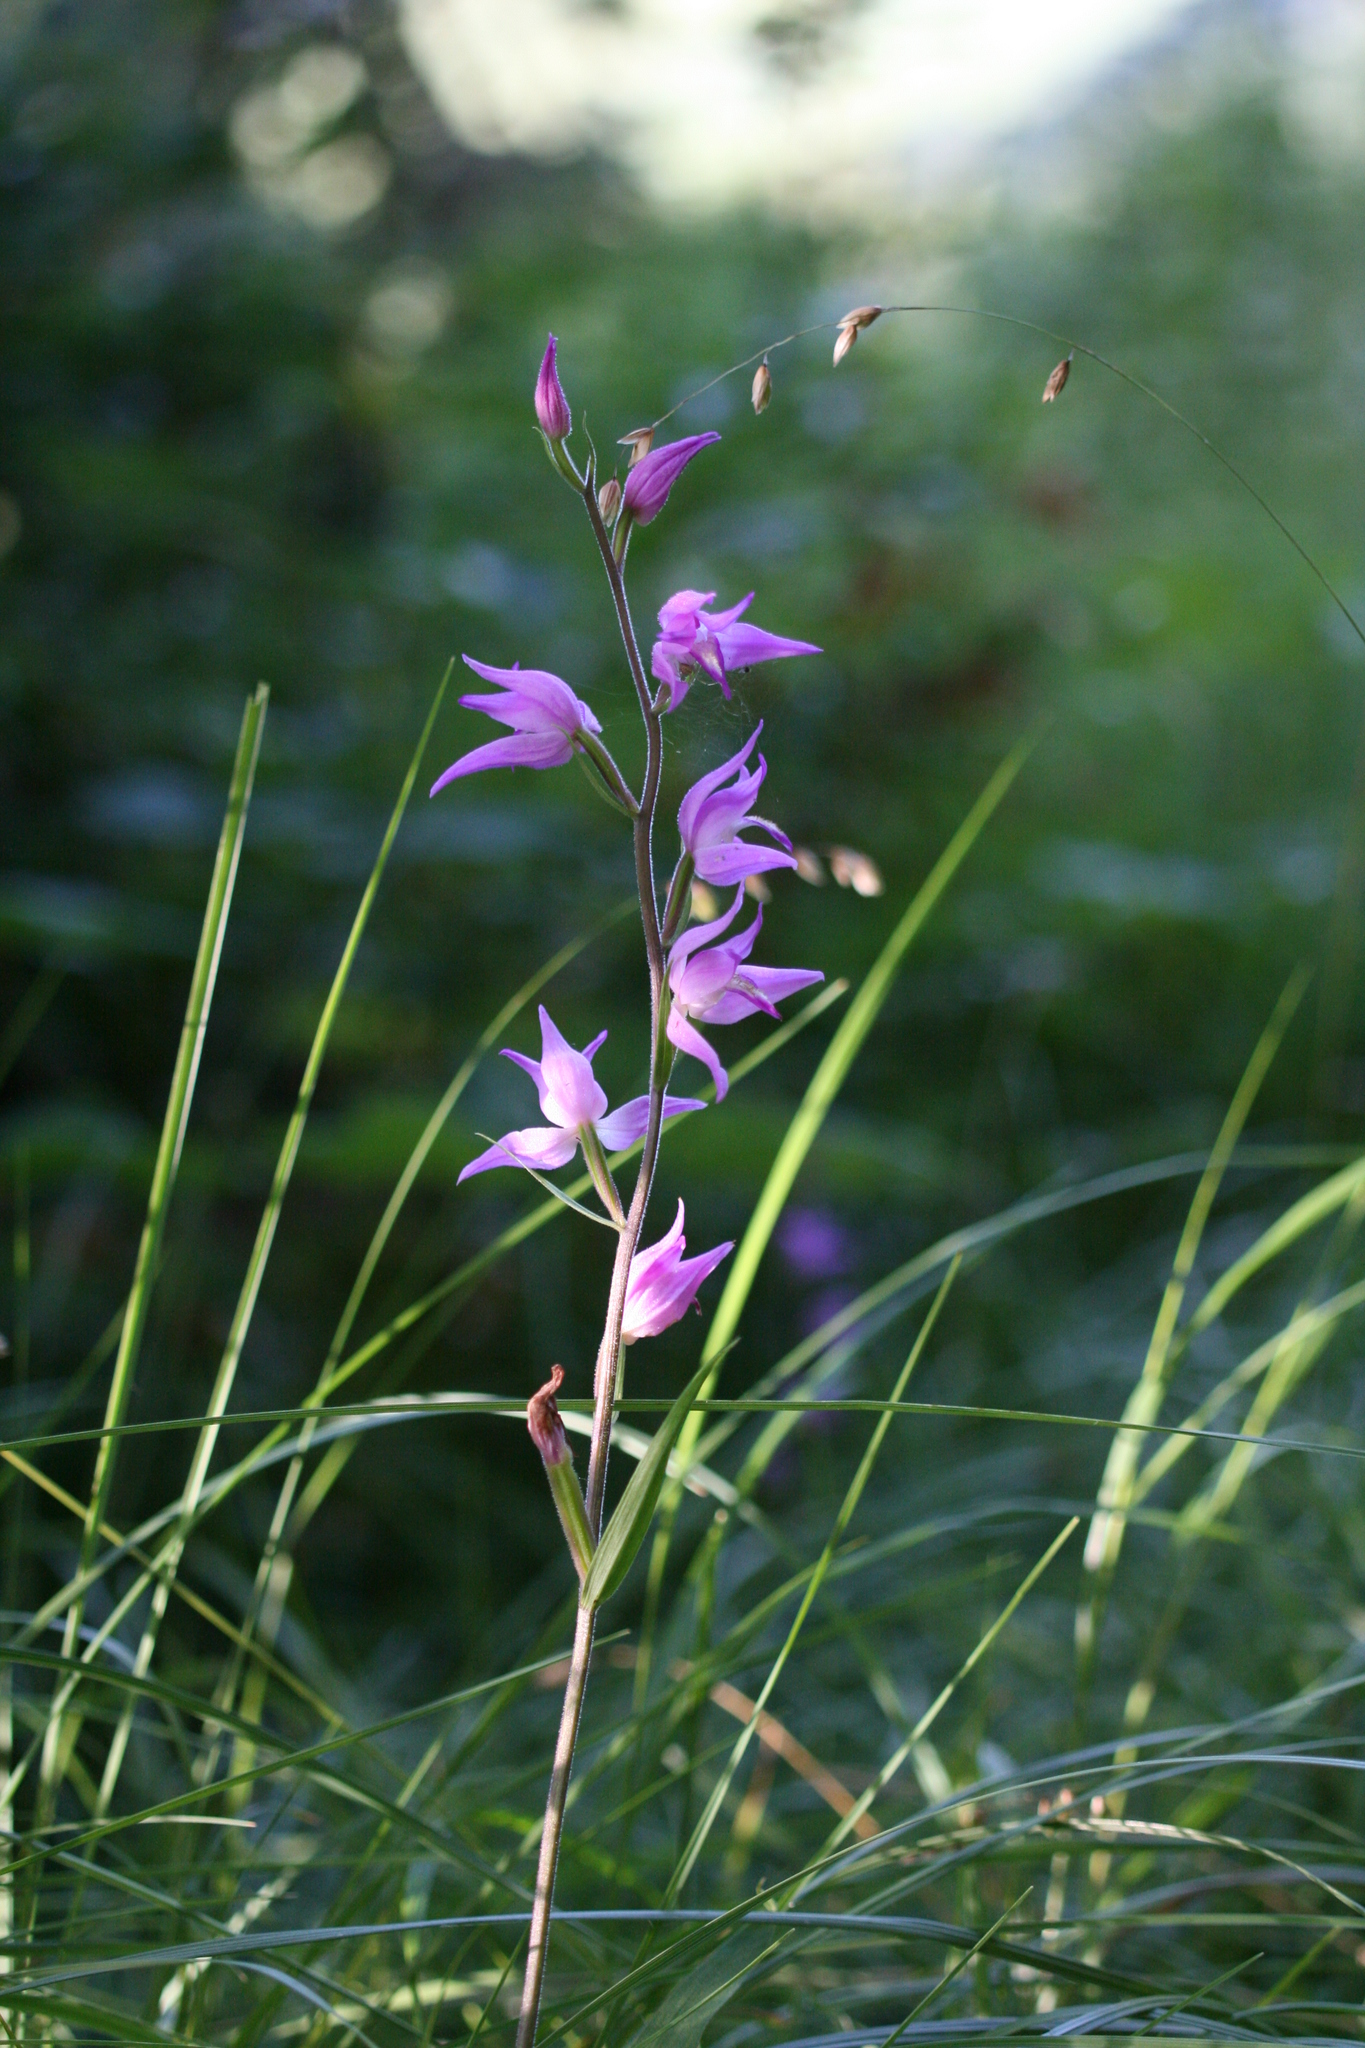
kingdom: Plantae
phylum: Tracheophyta
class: Liliopsida
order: Asparagales
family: Orchidaceae
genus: Cephalanthera
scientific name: Cephalanthera rubra
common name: Red helleborine
